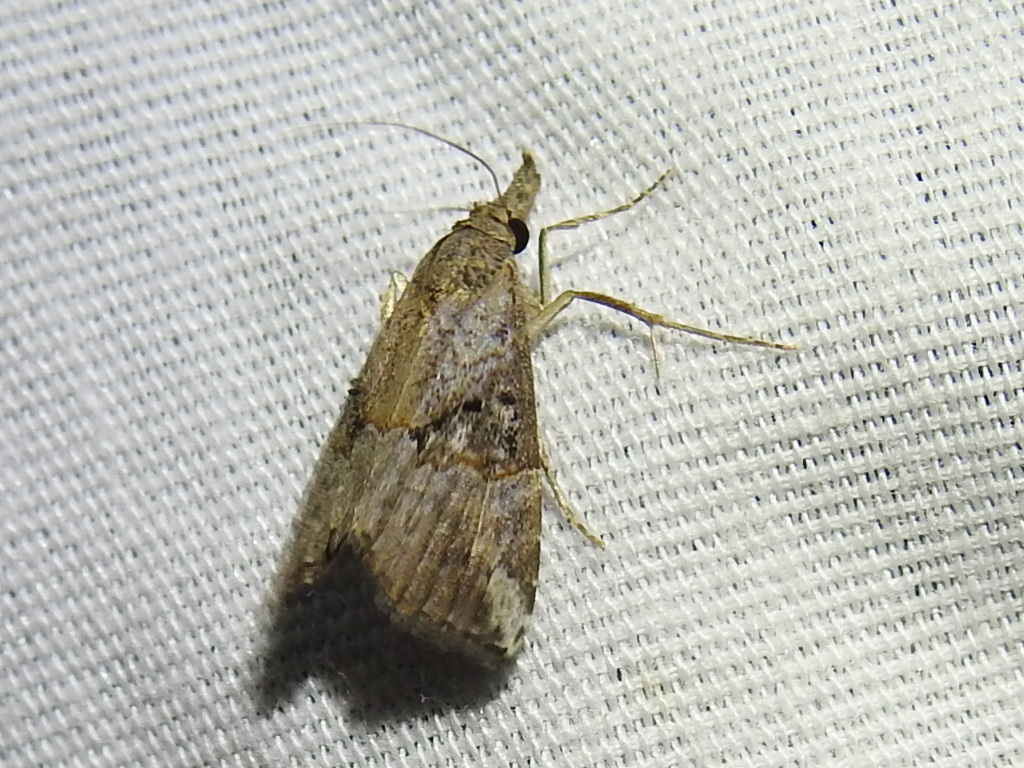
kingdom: Animalia
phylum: Arthropoda
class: Insecta
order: Lepidoptera
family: Erebidae
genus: Hypena
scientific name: Hypena minualis
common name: Sooty snout
